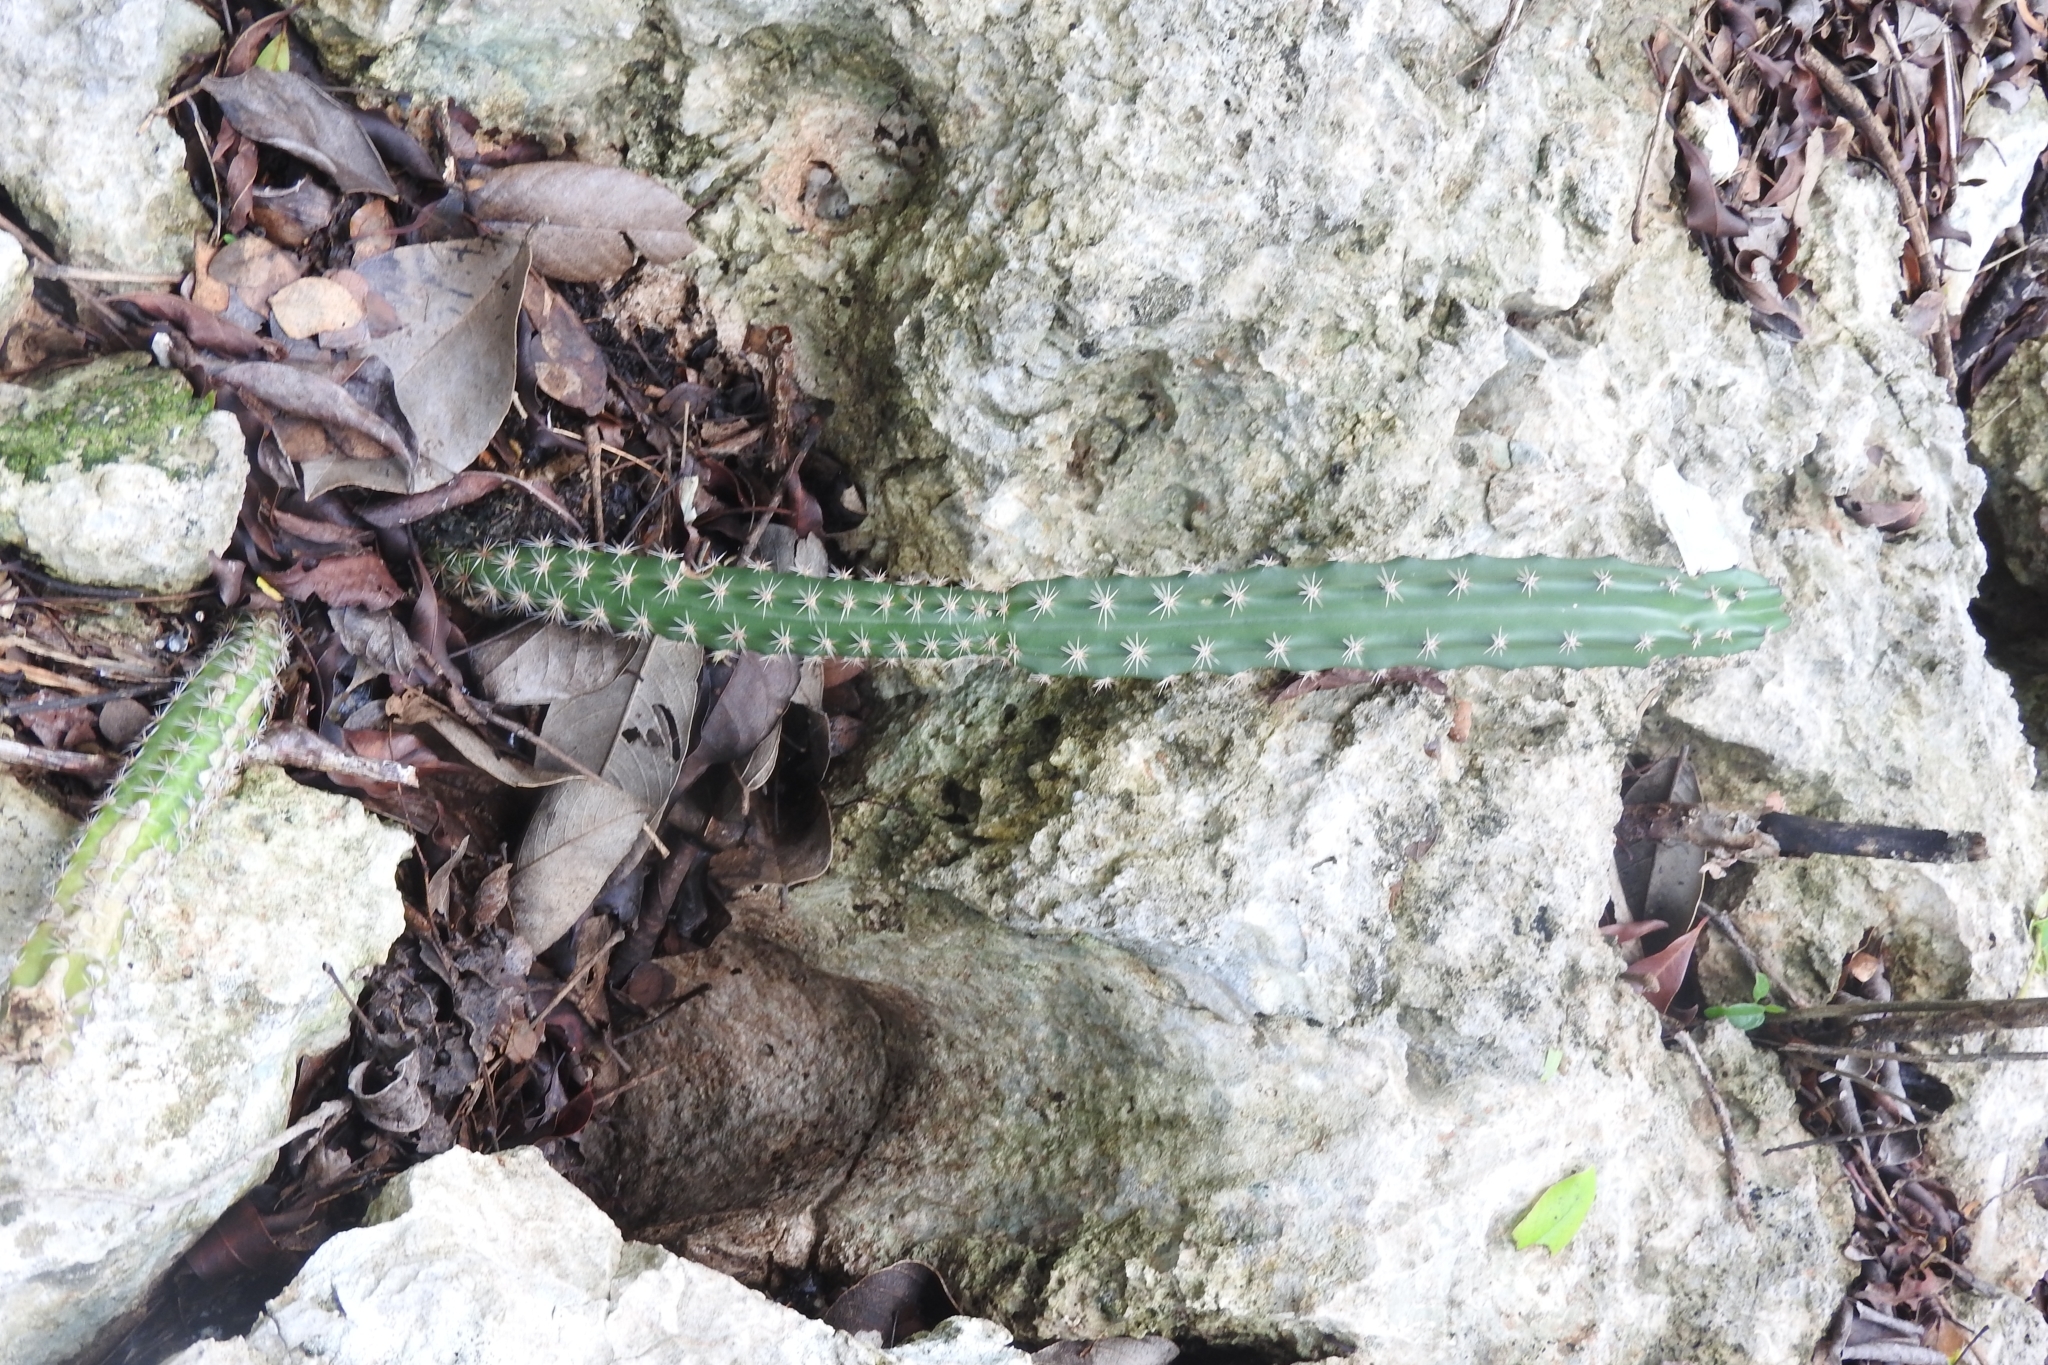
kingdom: Plantae
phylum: Tracheophyta
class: Magnoliopsida
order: Caryophyllales
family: Cactaceae
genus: Selenicereus
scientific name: Selenicereus grandiflorus
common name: Queen of the night
